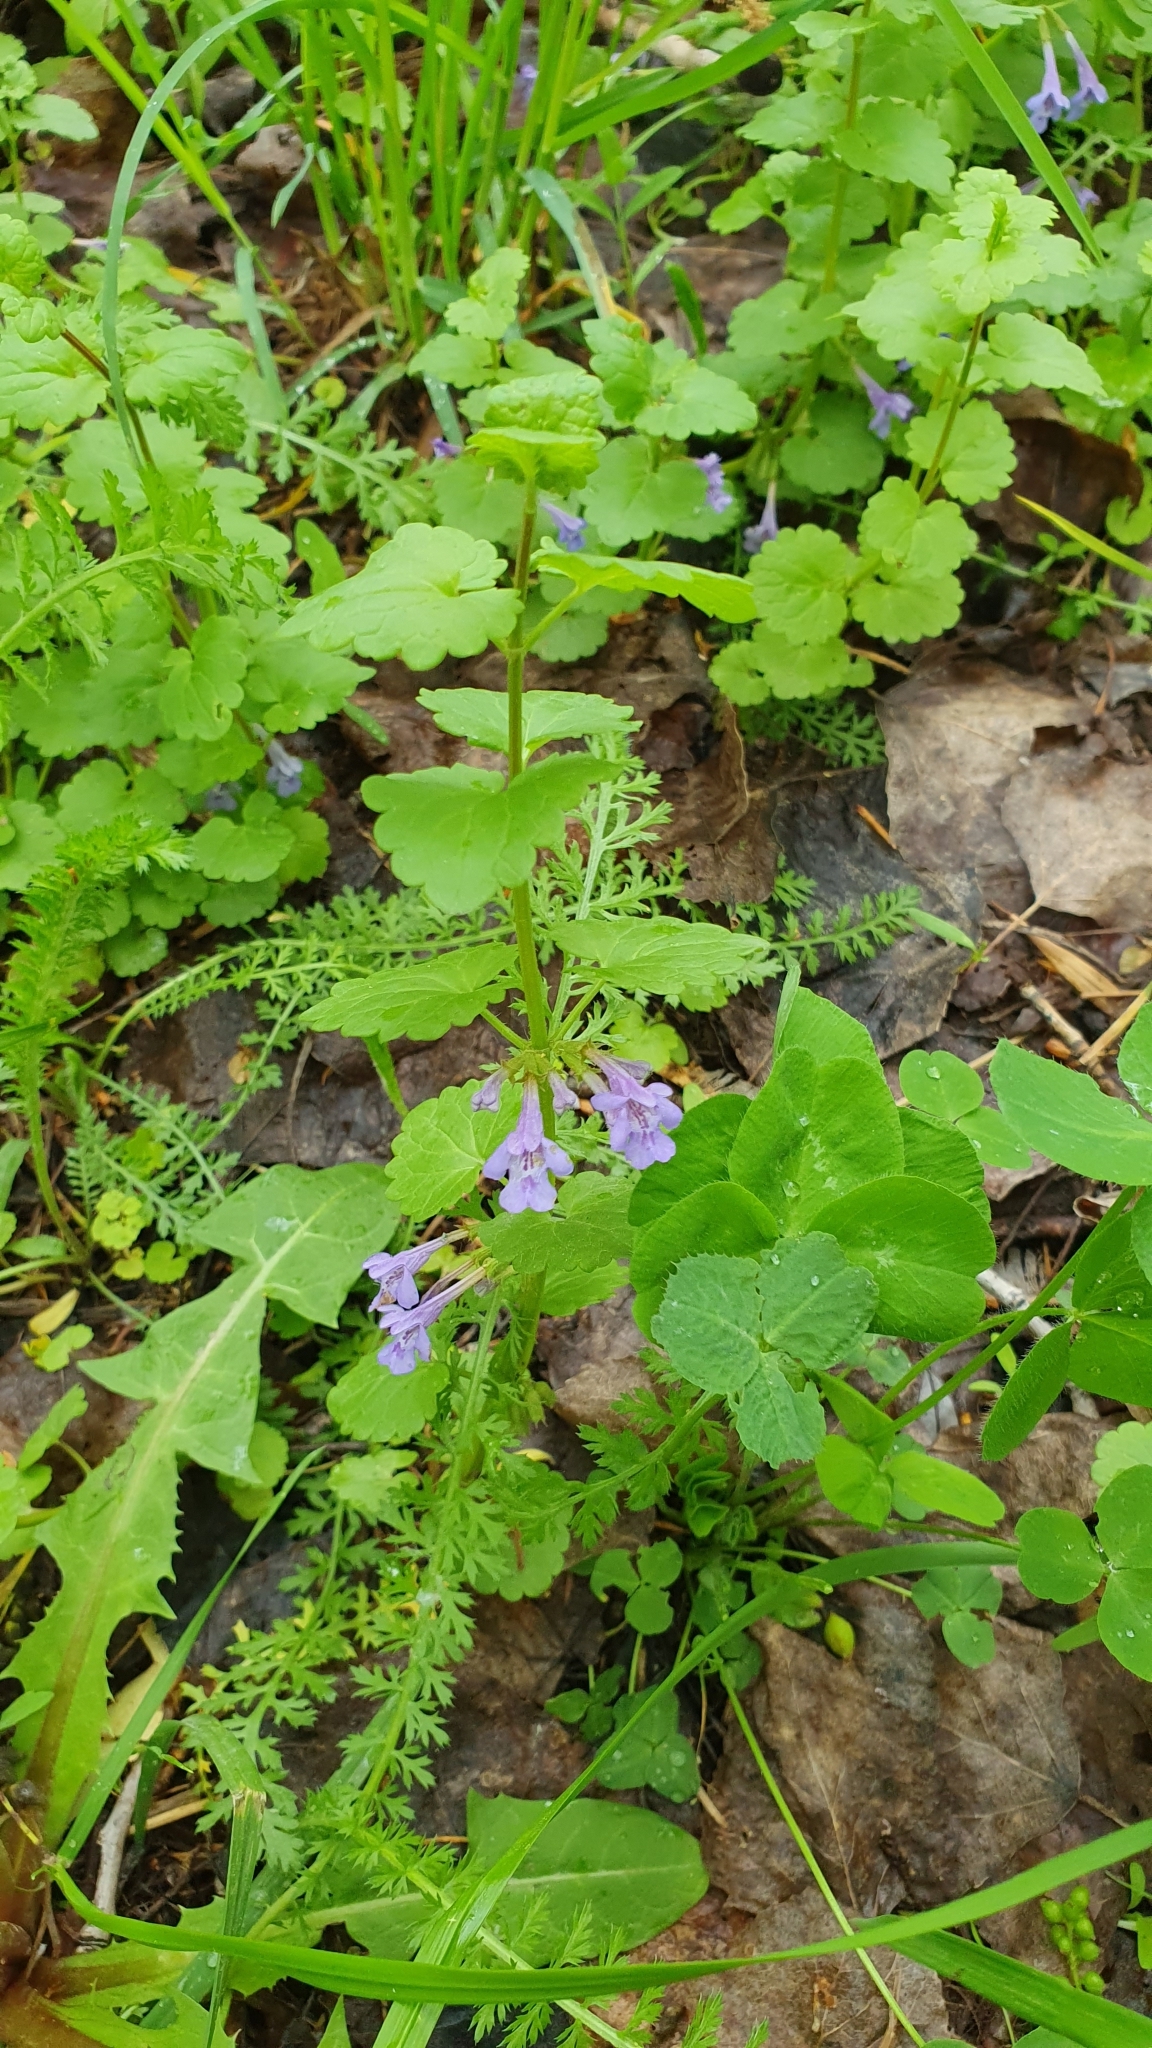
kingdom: Plantae
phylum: Tracheophyta
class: Magnoliopsida
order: Lamiales
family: Lamiaceae
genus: Glechoma
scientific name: Glechoma hederacea
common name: Ground ivy
